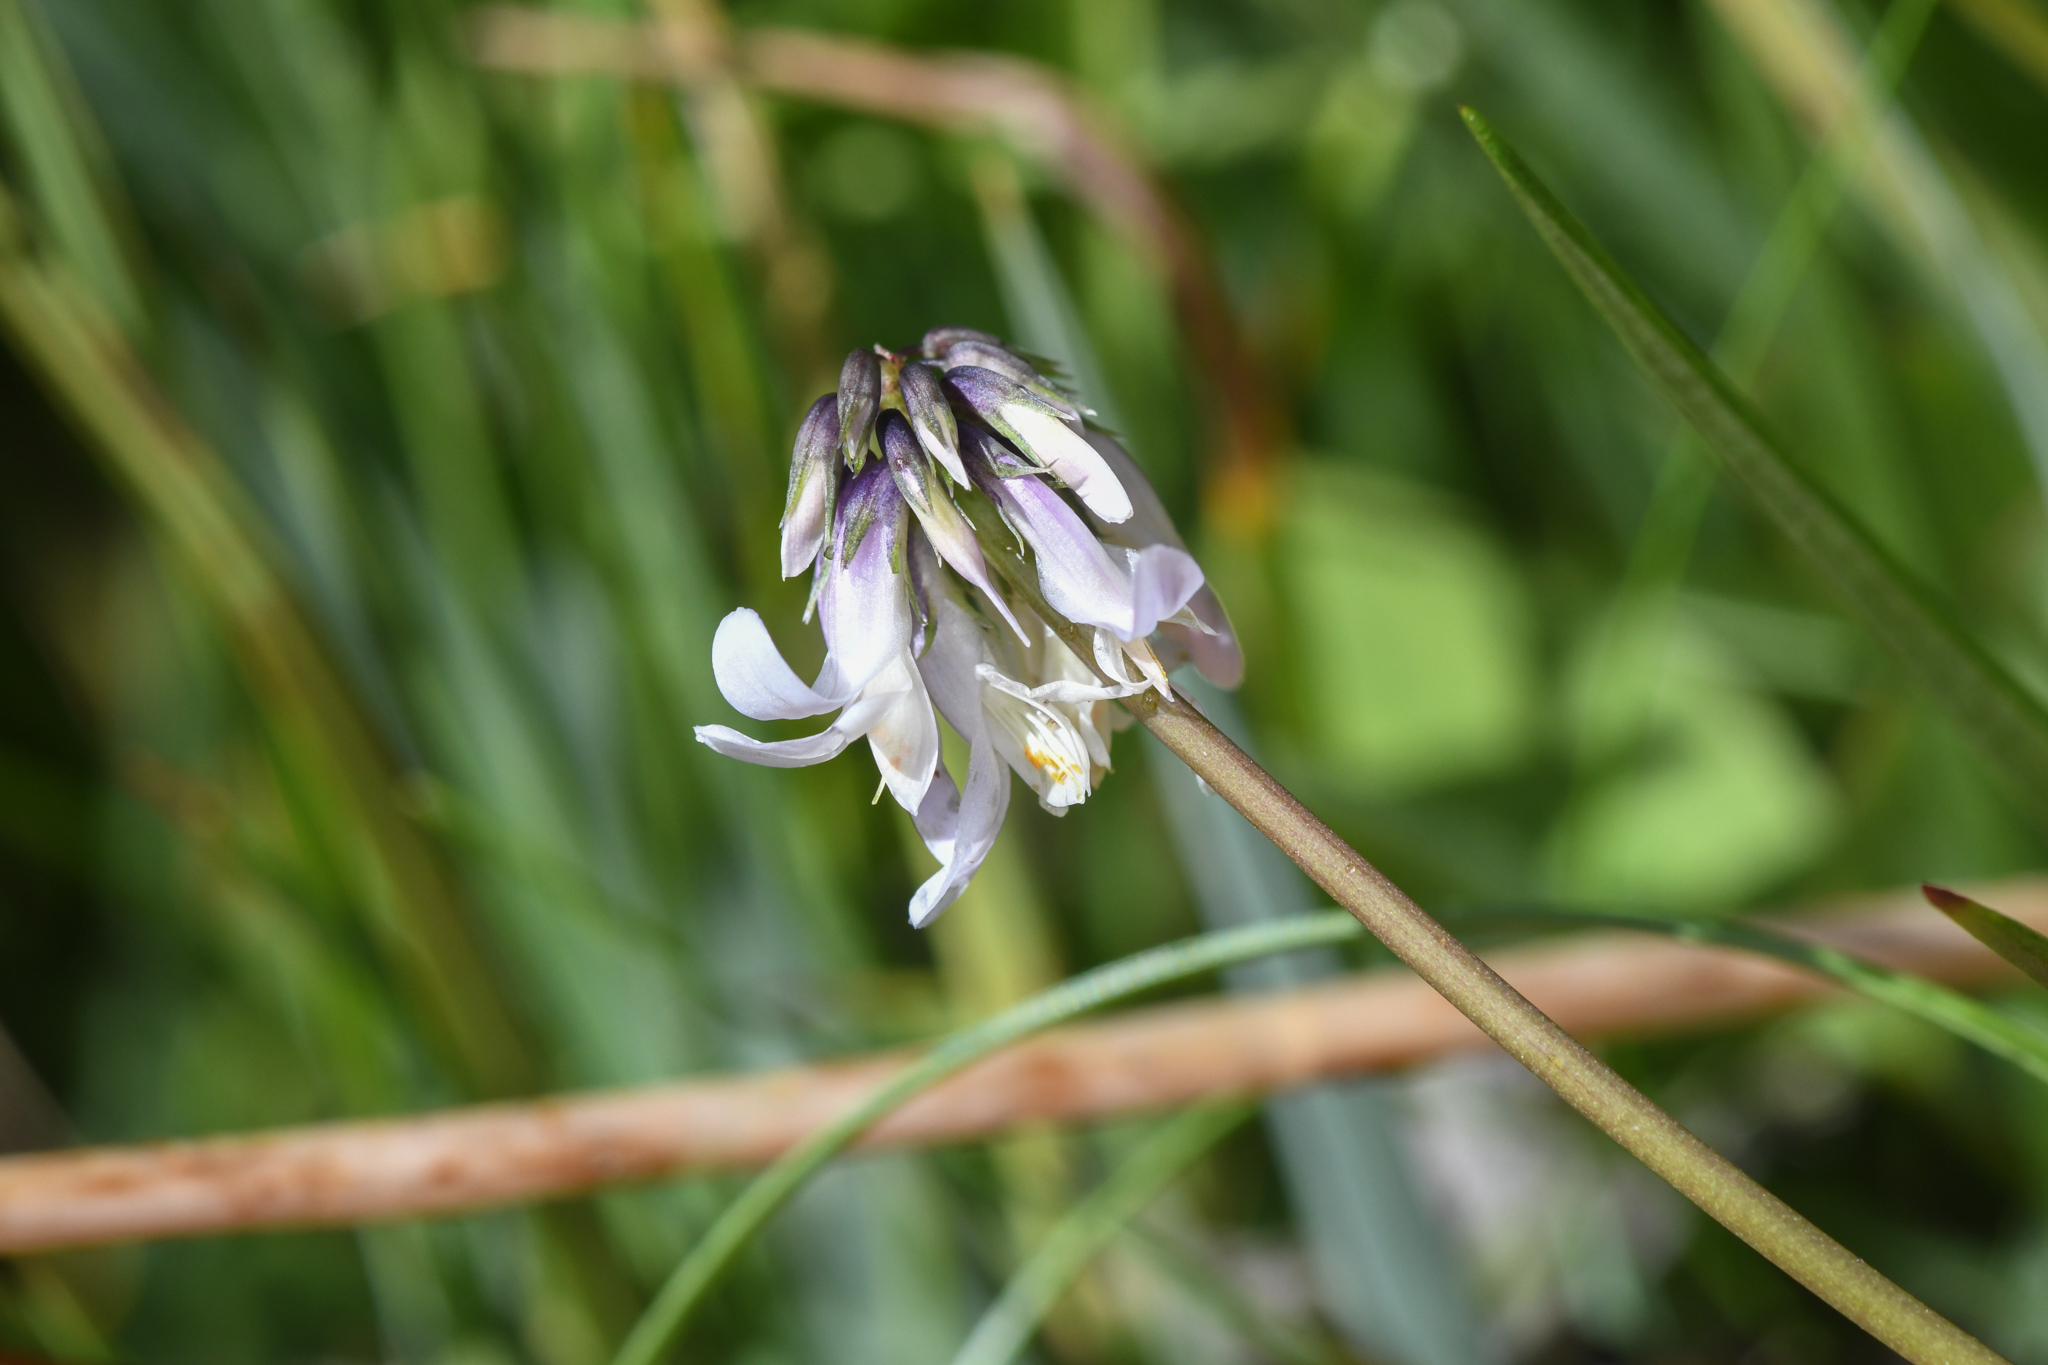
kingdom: Plantae
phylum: Tracheophyta
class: Magnoliopsida
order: Fabales
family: Fabaceae
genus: Trifolium
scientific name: Trifolium bolanderi
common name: Bolander's clover
